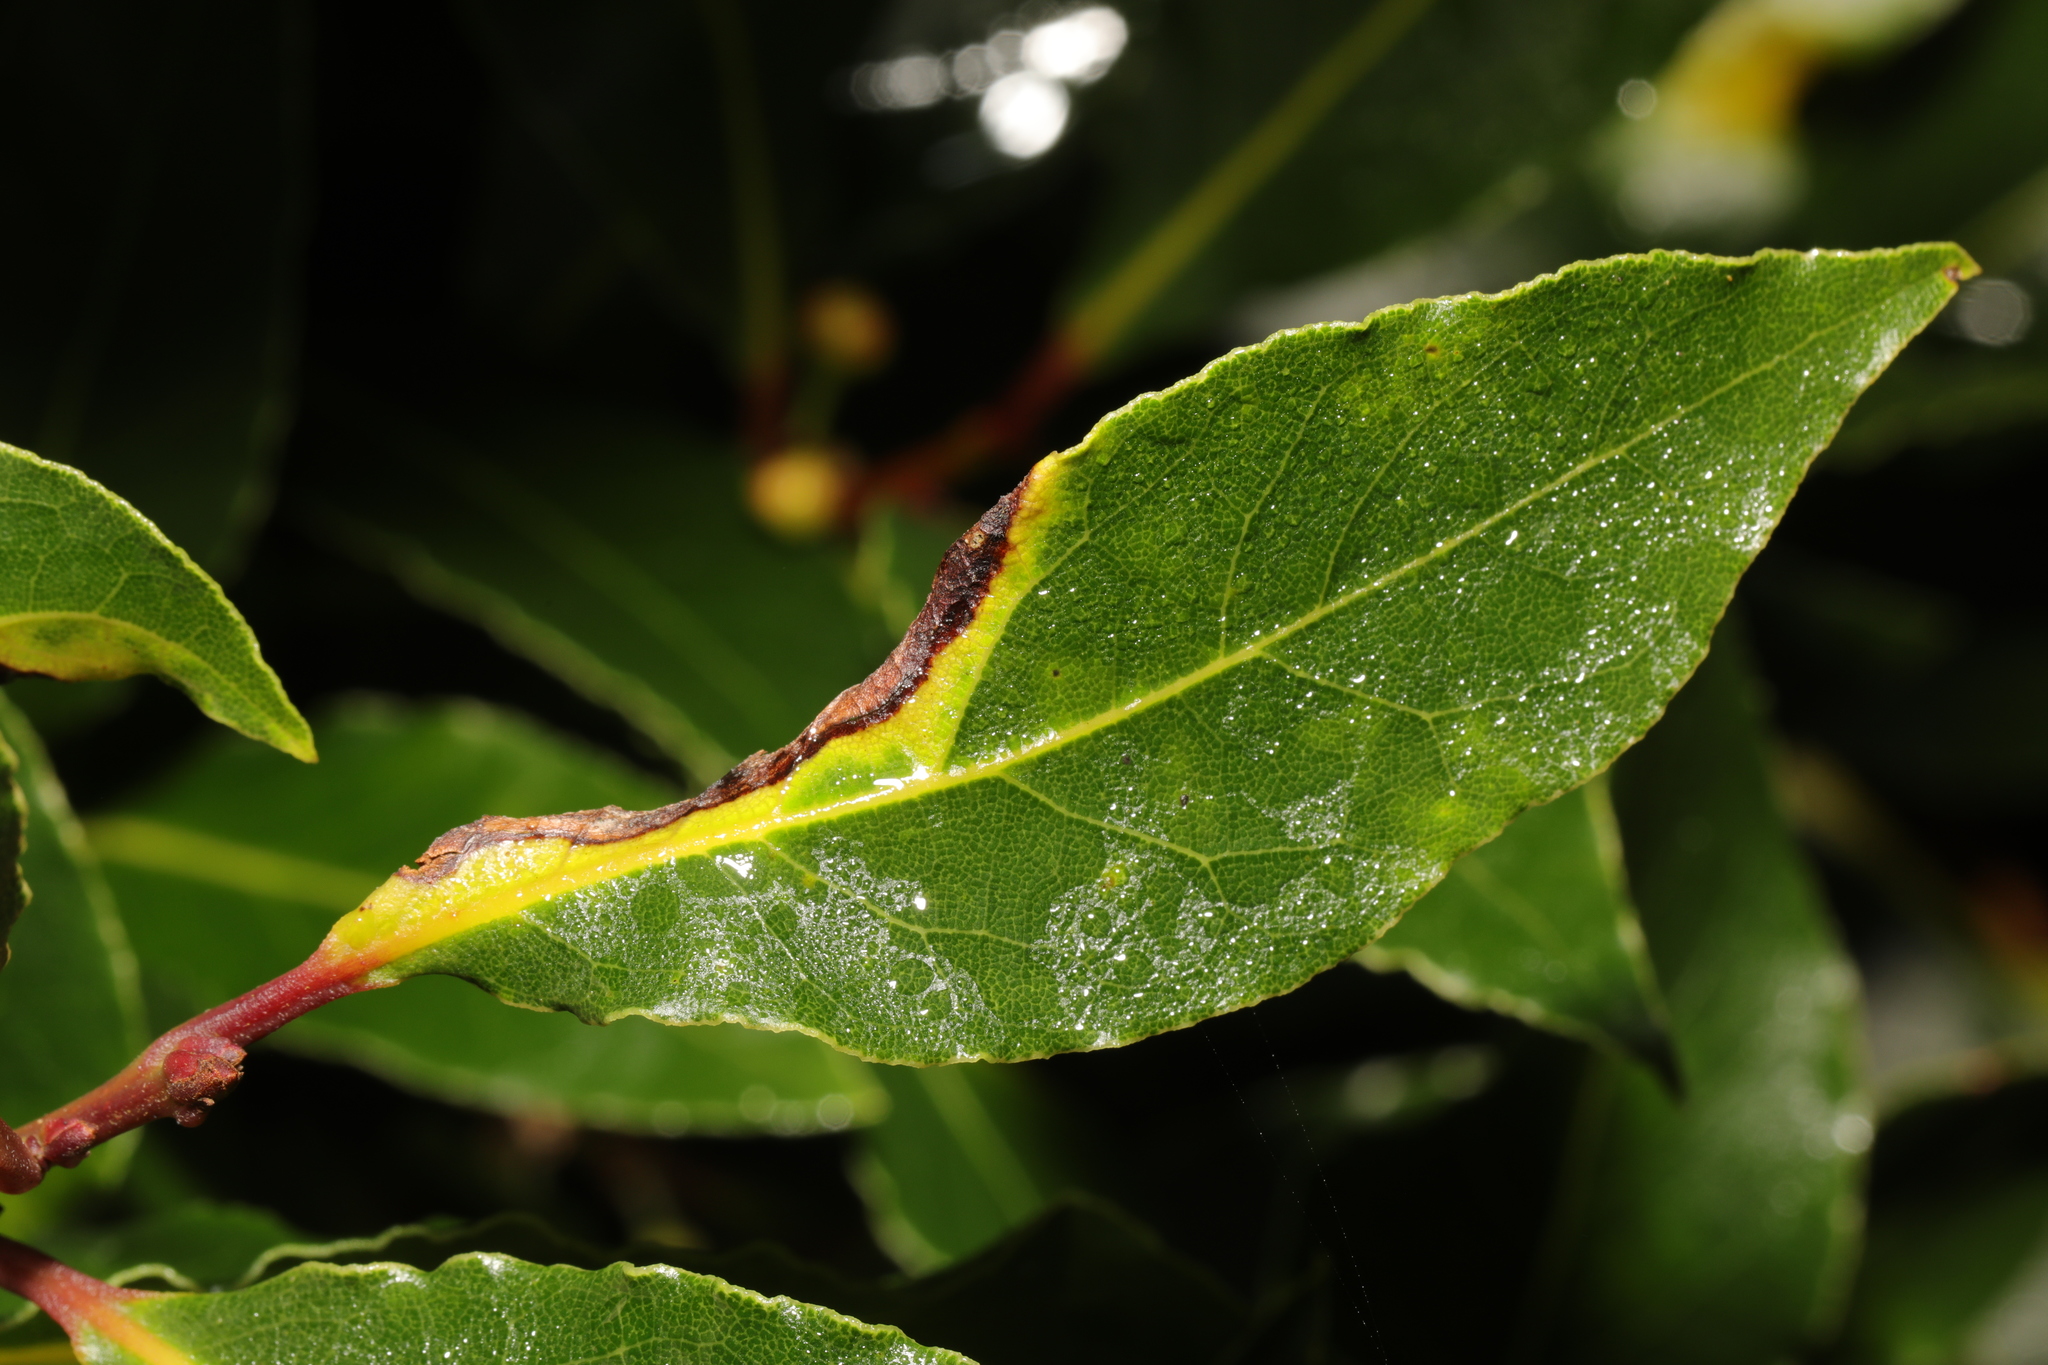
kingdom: Animalia
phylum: Arthropoda
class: Insecta
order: Hemiptera
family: Triozidae
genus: Lauritrioza
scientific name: Lauritrioza alacris
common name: Laurel psyllid
